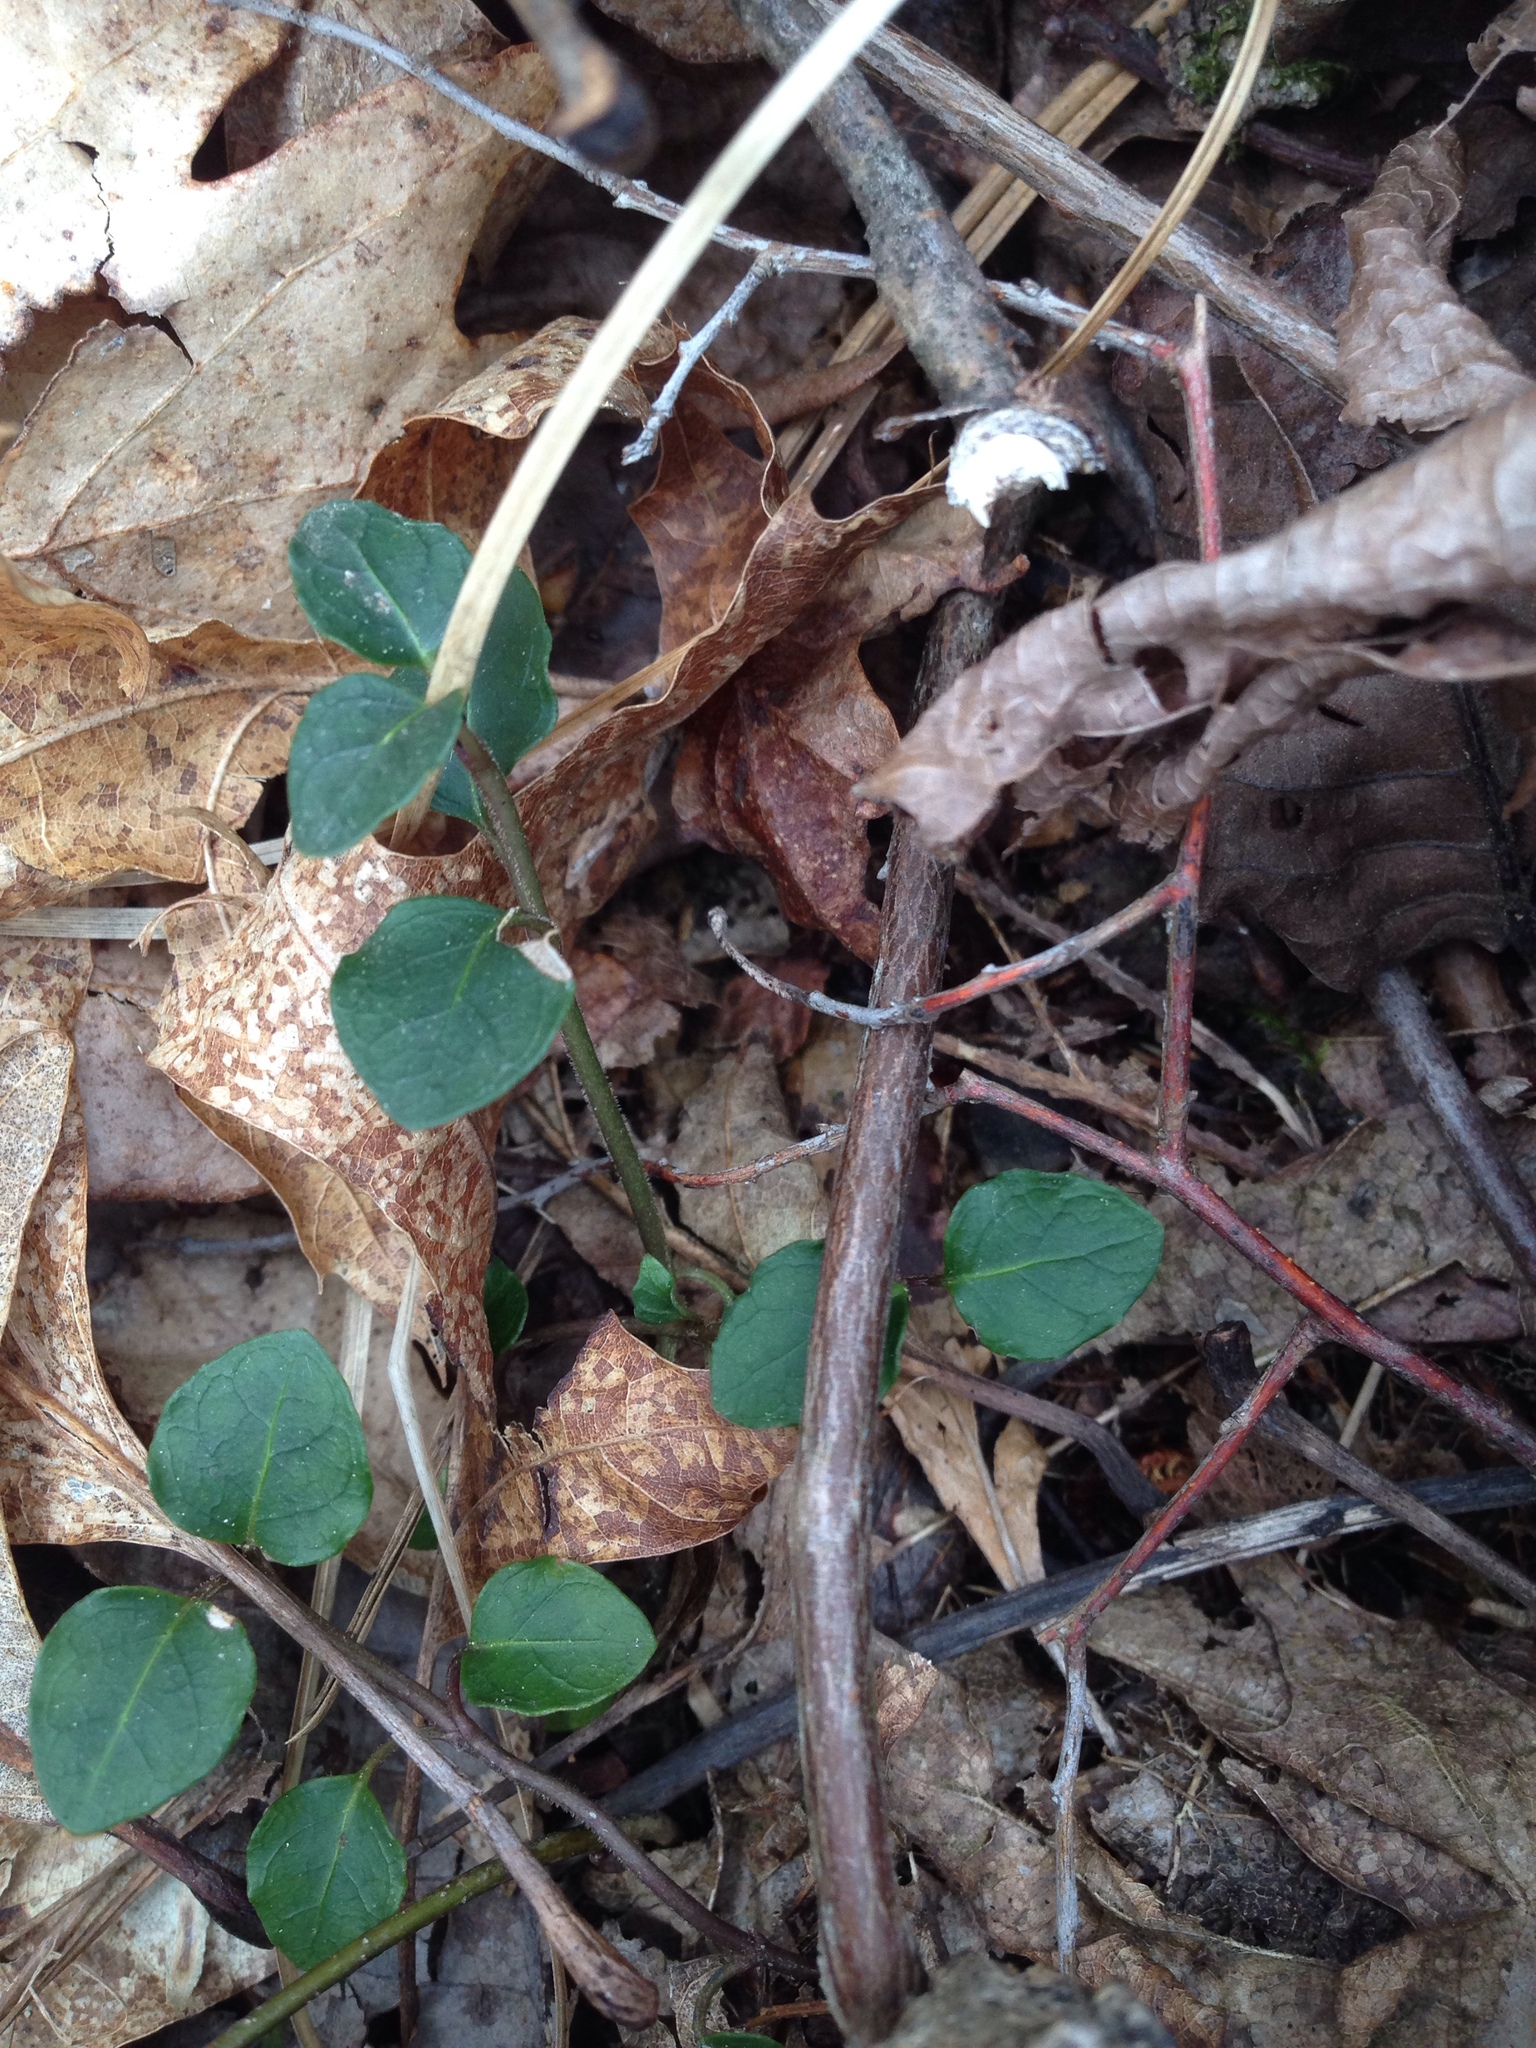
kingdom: Plantae
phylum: Tracheophyta
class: Magnoliopsida
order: Gentianales
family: Rubiaceae
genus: Mitchella
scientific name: Mitchella repens
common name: Partridge-berry
